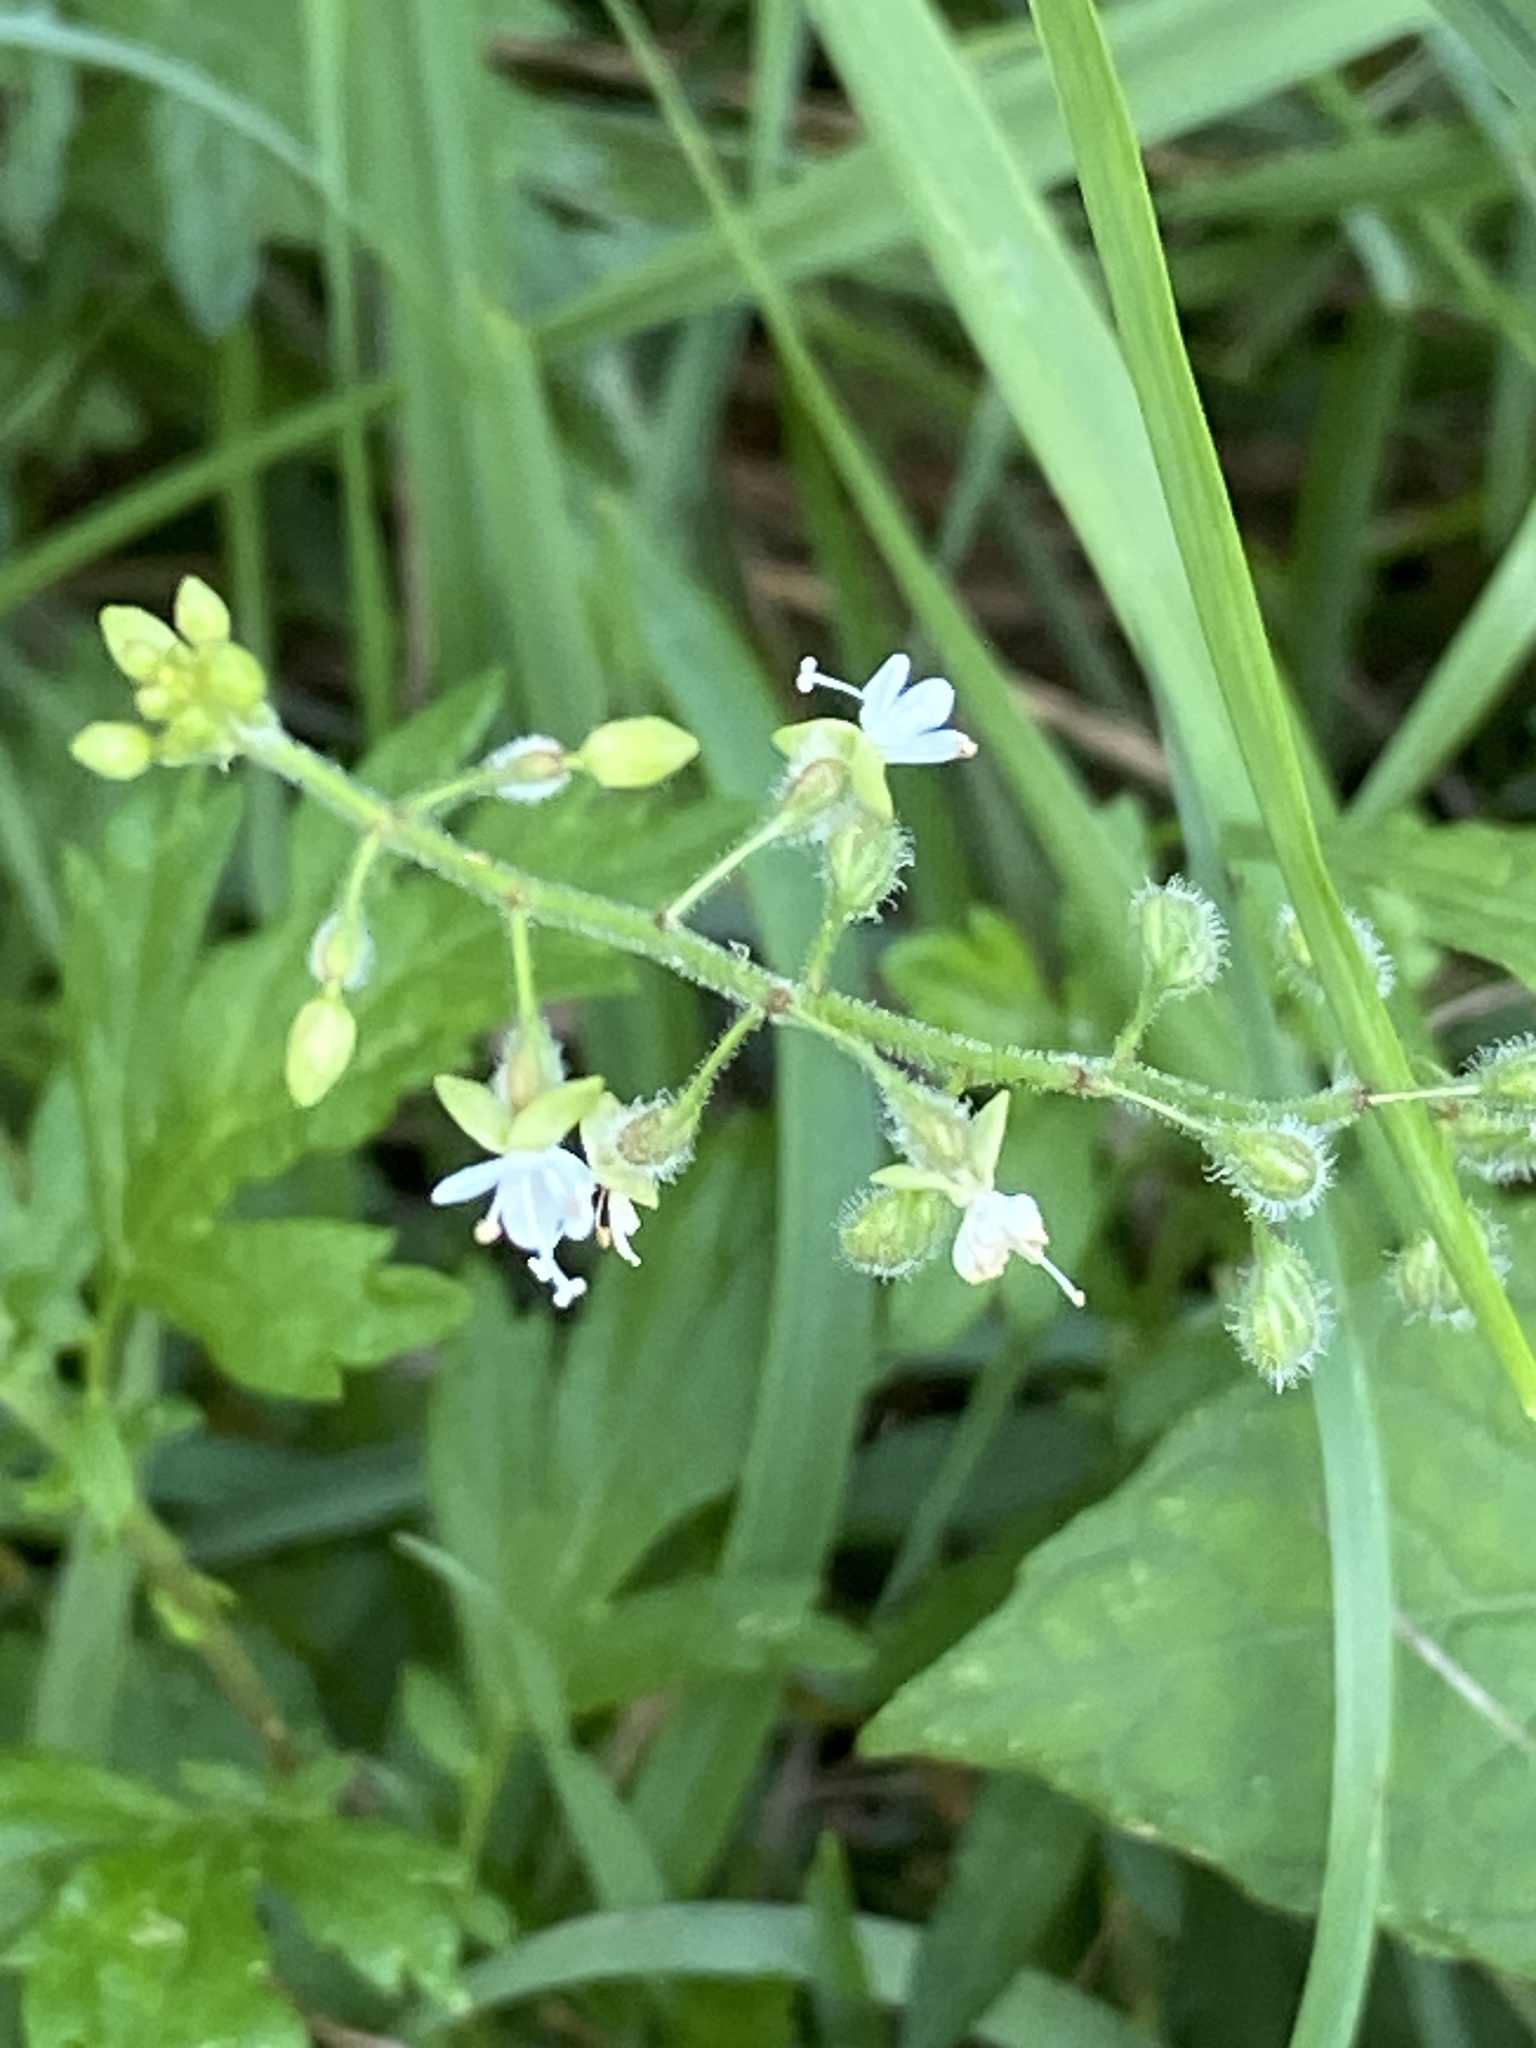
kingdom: Plantae
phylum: Tracheophyta
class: Magnoliopsida
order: Myrtales
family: Onagraceae
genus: Circaea
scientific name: Circaea canadensis
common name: Broad-leaved enchanter's nightshade
